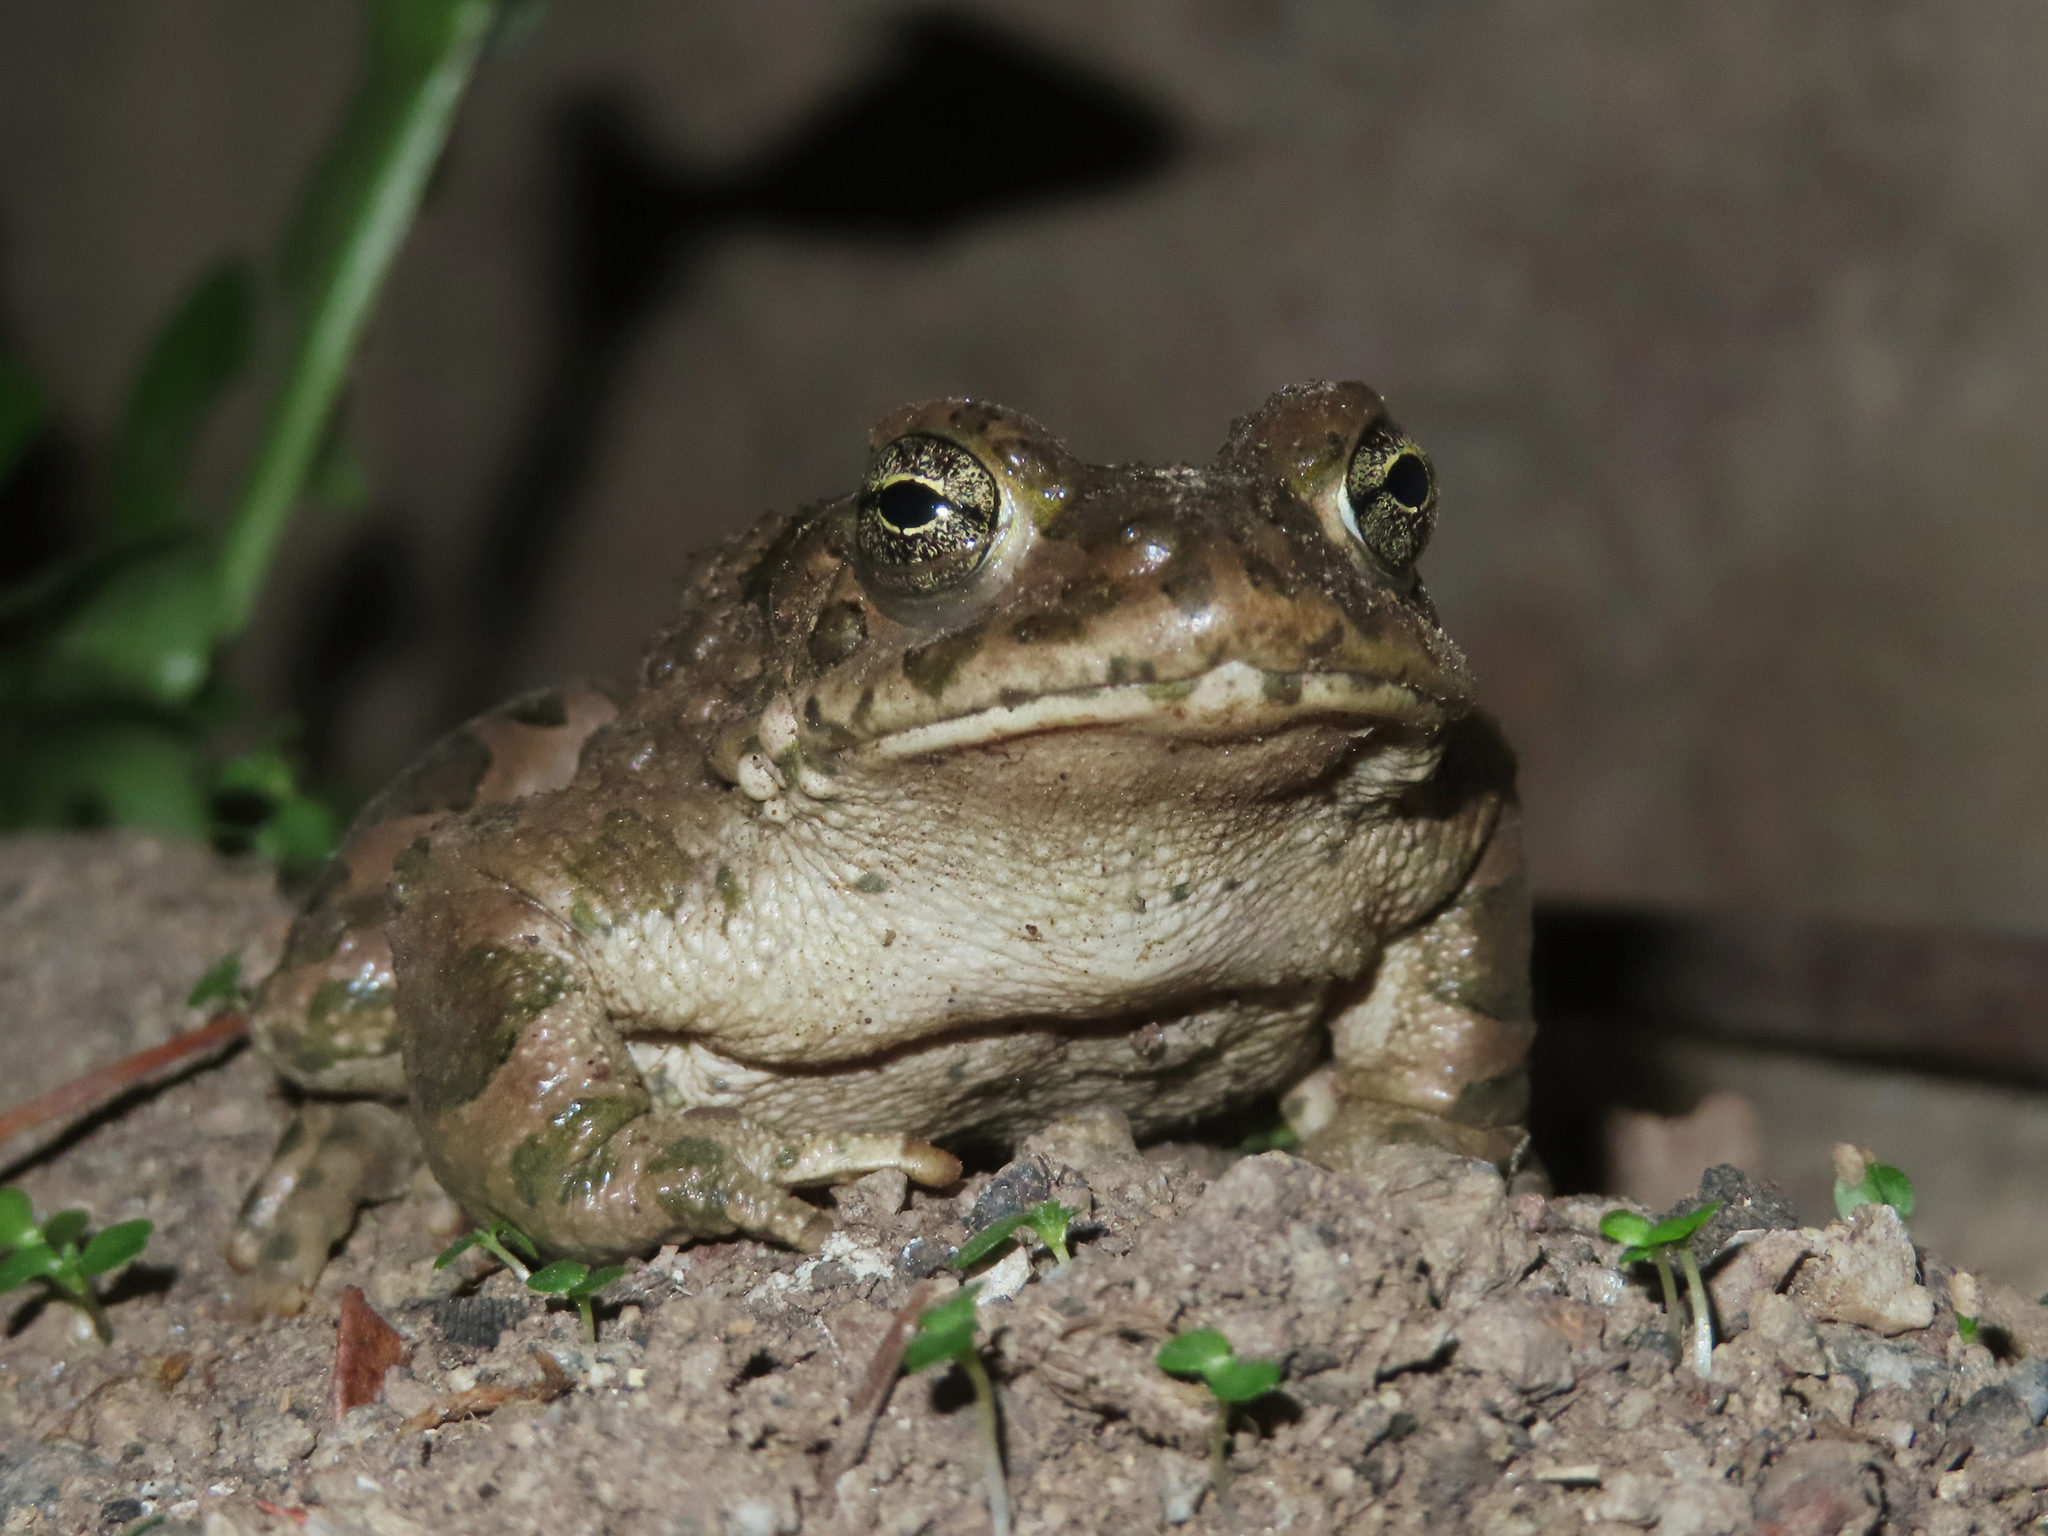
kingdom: Animalia
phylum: Chordata
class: Amphibia
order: Anura
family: Bufonidae
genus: Bufotes
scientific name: Bufotes viridis
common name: European green toad
